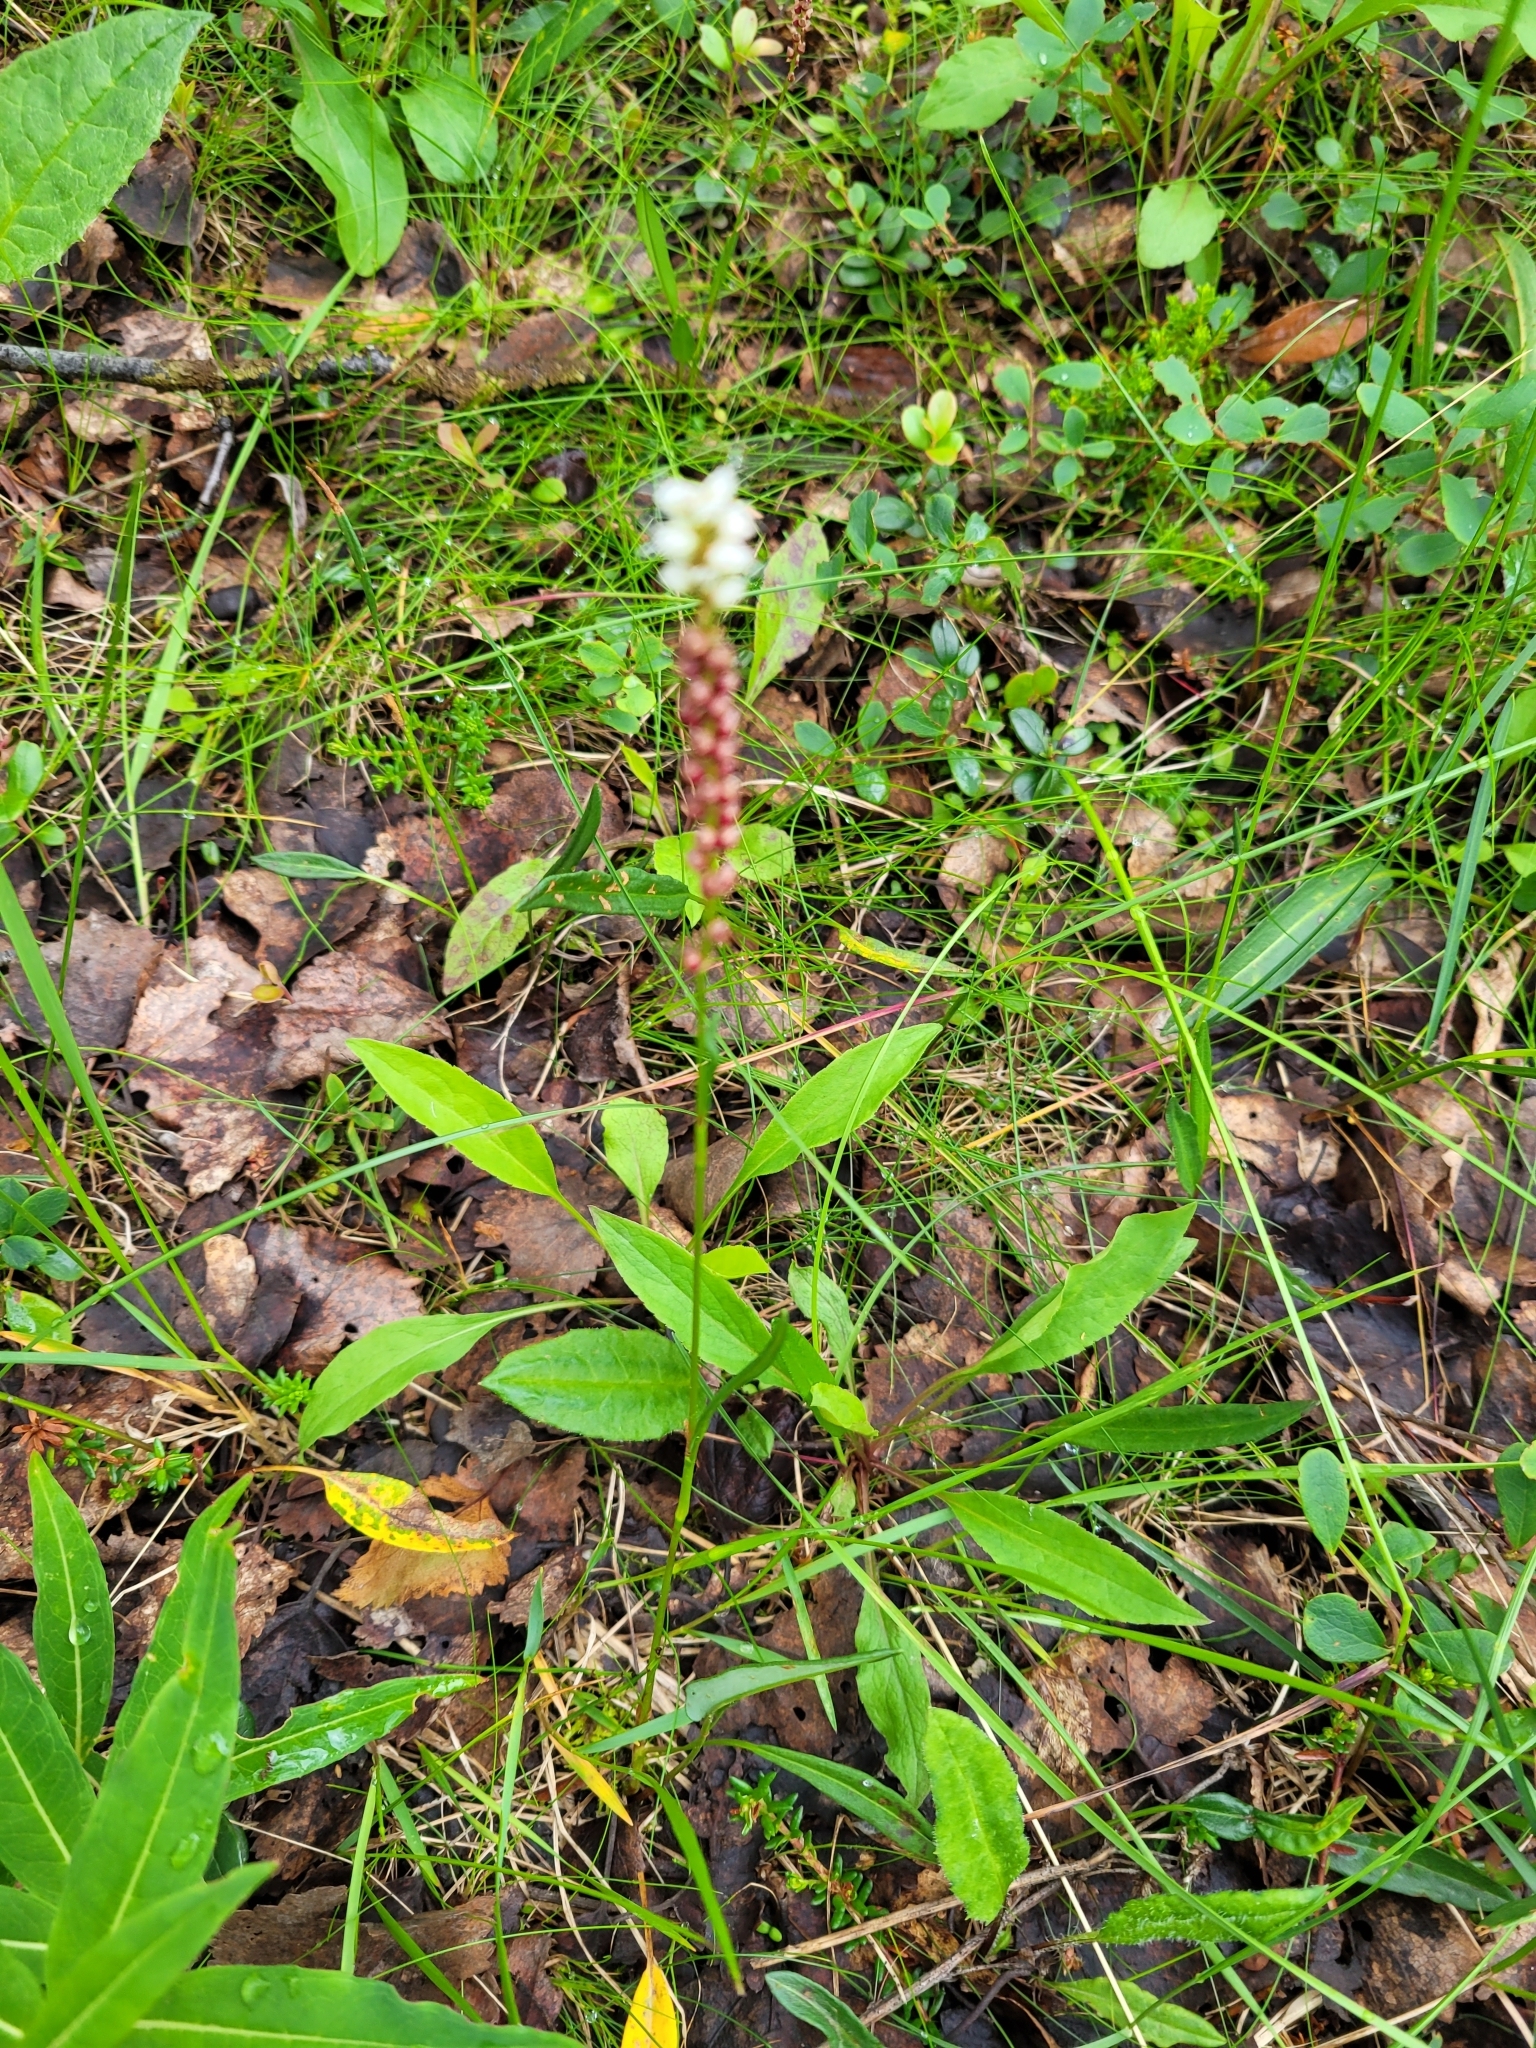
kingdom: Plantae
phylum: Tracheophyta
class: Magnoliopsida
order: Caryophyllales
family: Polygonaceae
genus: Bistorta
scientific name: Bistorta vivipara
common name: Alpine bistort
